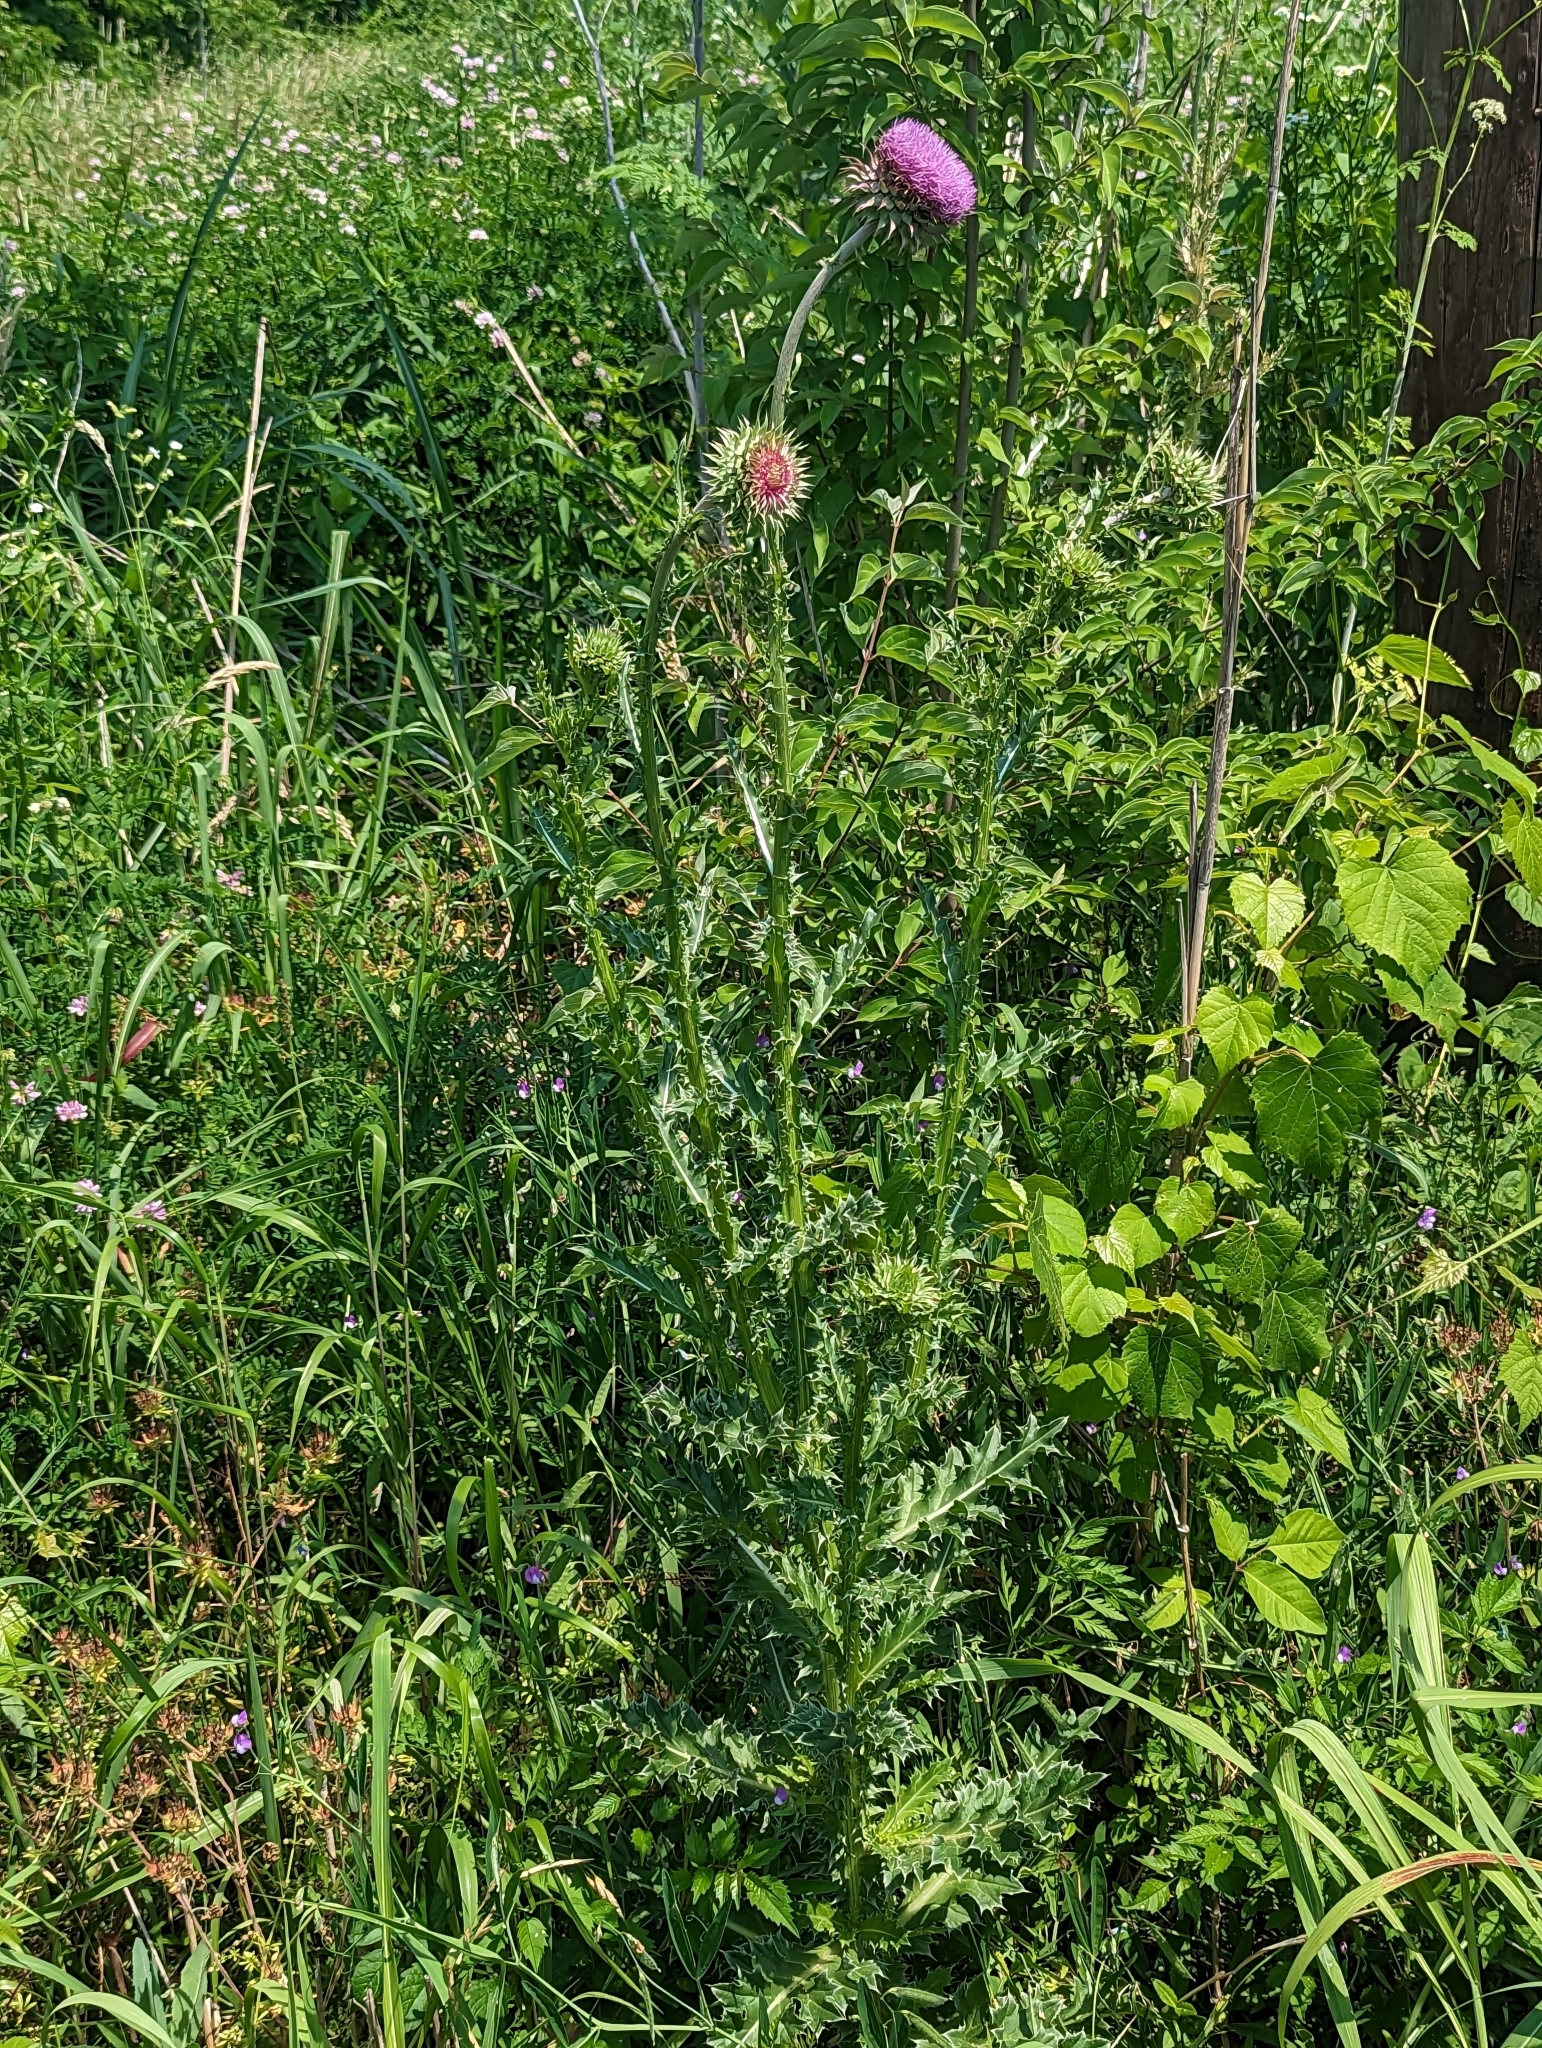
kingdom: Plantae
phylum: Tracheophyta
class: Magnoliopsida
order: Asterales
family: Asteraceae
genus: Carduus
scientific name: Carduus nutans
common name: Musk thistle
